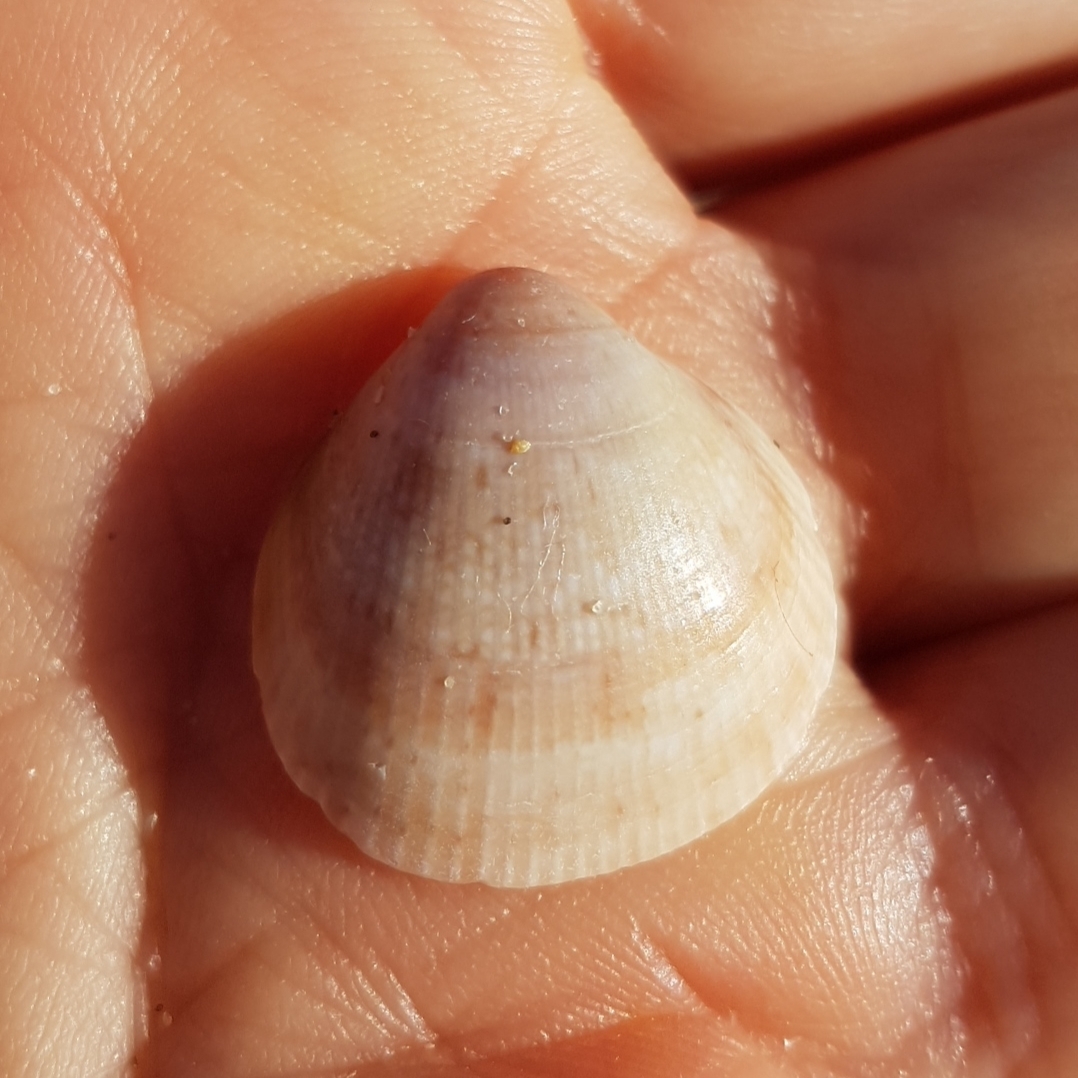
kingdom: Animalia
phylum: Mollusca
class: Bivalvia
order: Cardiida
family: Cardiidae
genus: Laevicardium
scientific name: Laevicardium crassum
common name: Norway cockle
